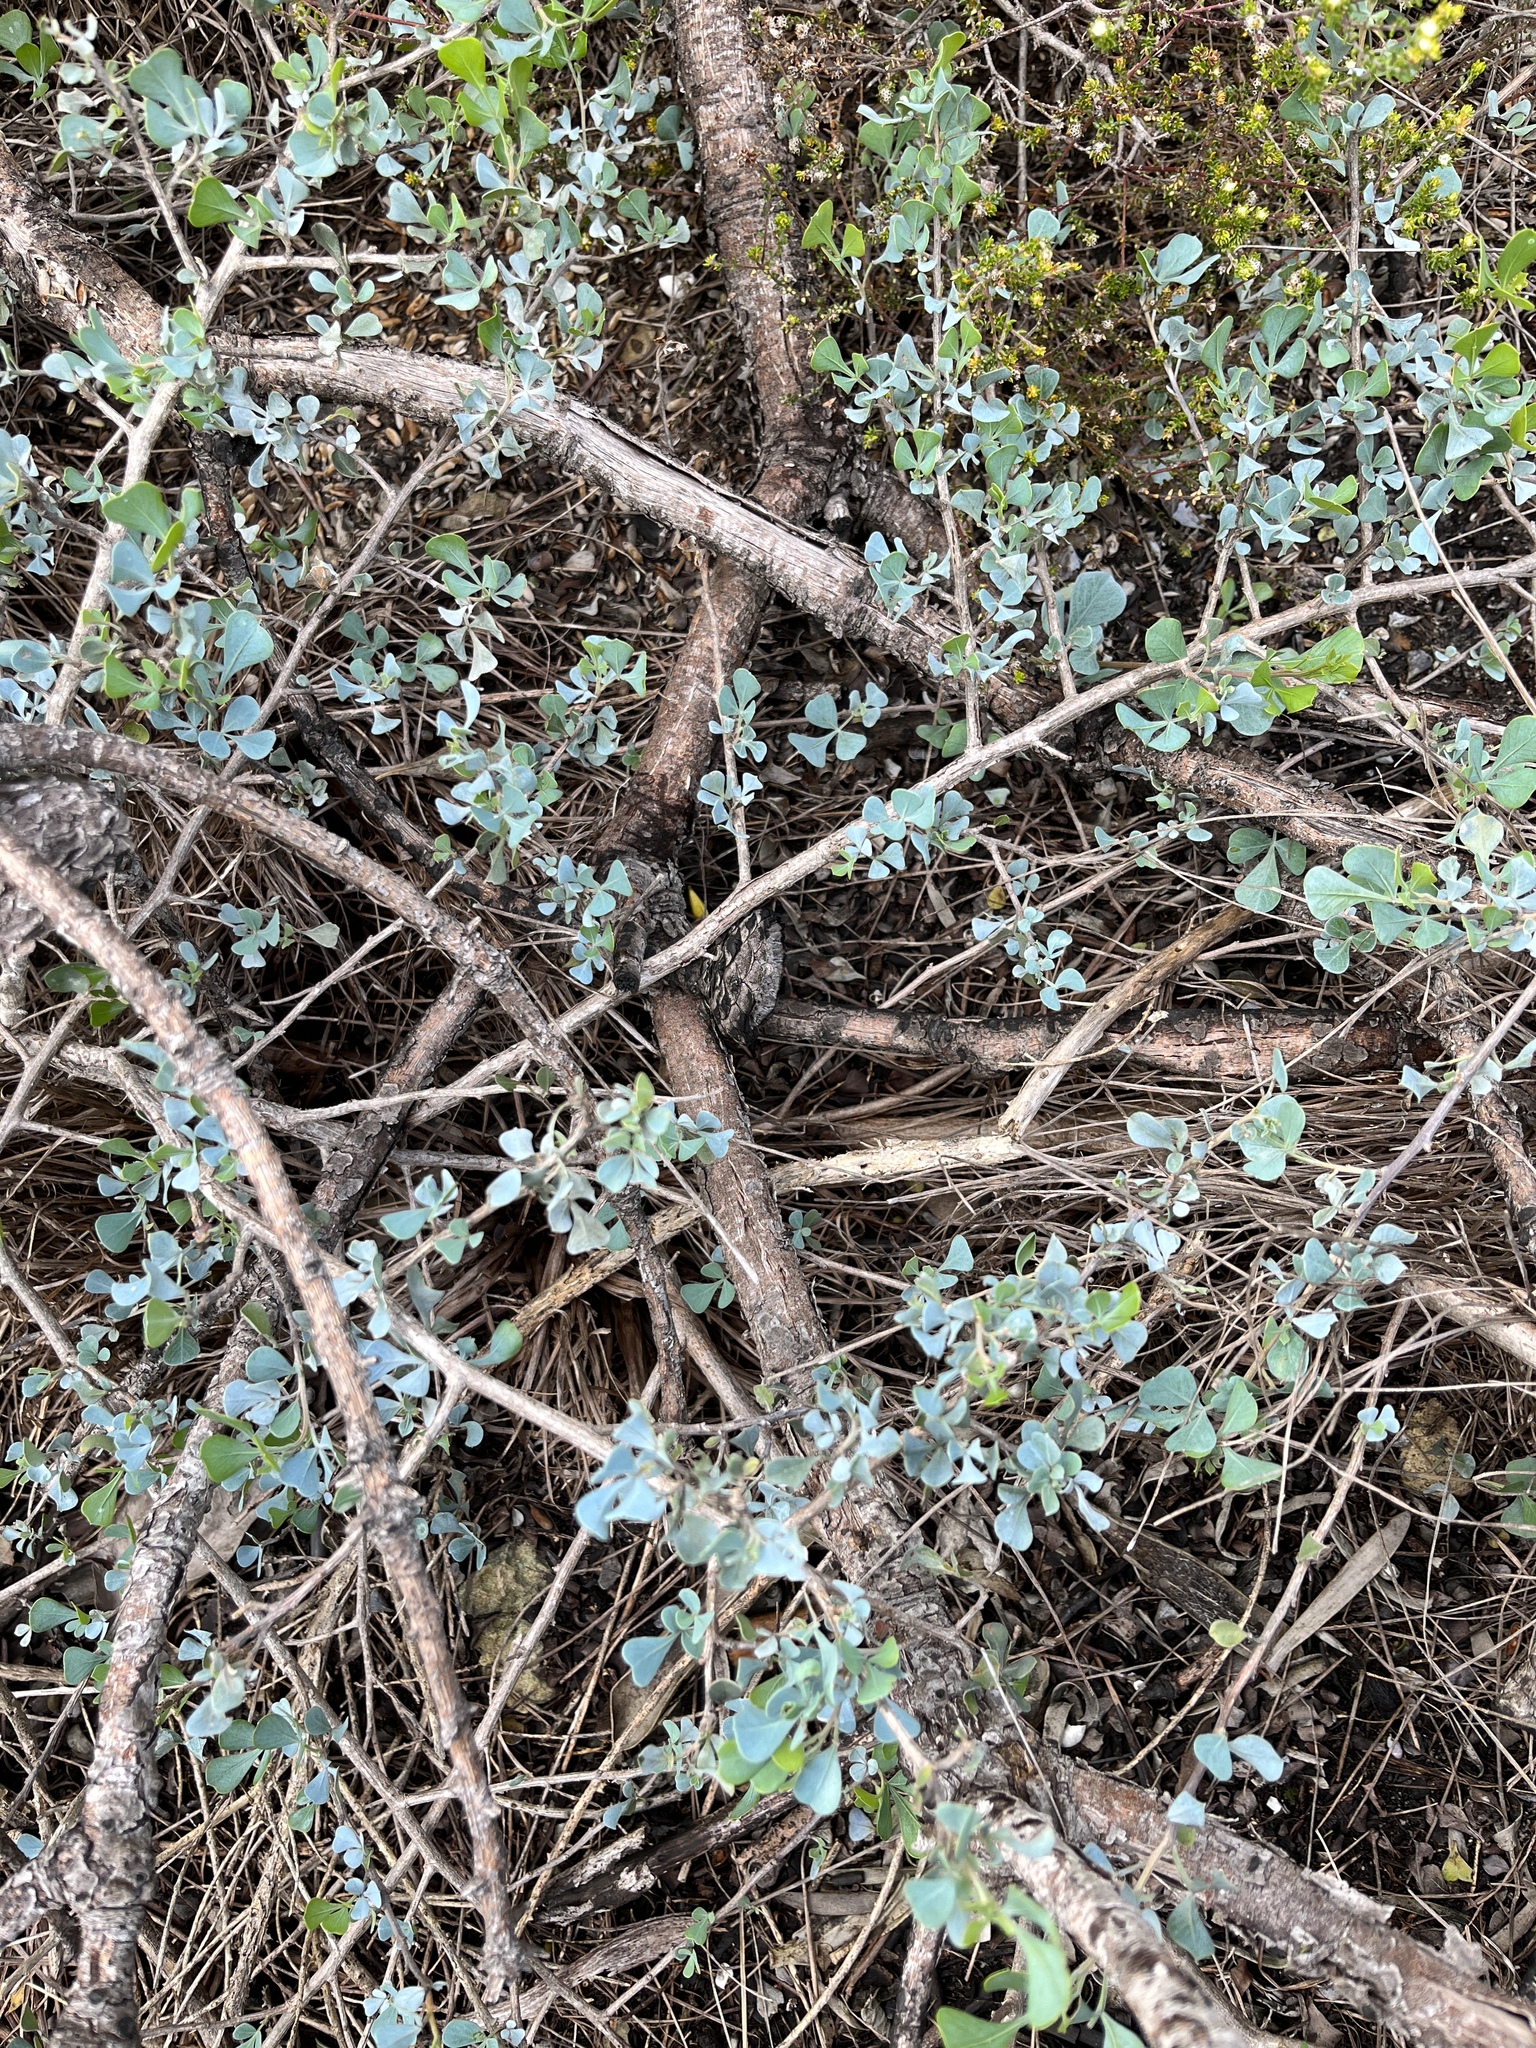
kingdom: Plantae
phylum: Tracheophyta
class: Magnoliopsida
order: Asterales
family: Asteraceae
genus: Felicia
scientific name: Felicia amoena
